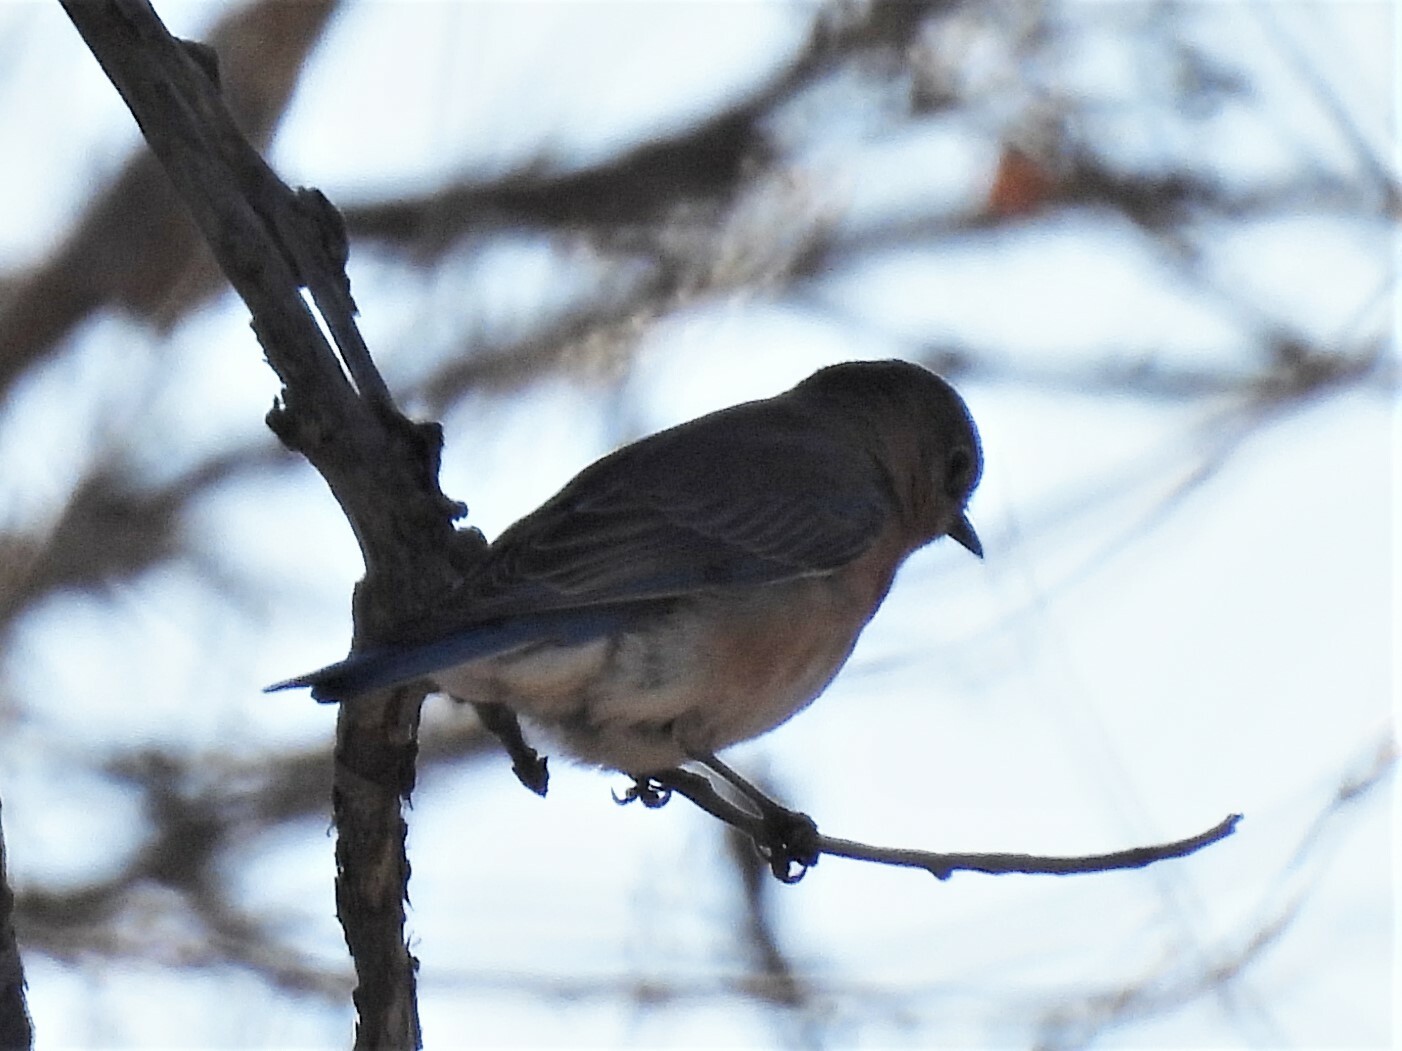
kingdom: Animalia
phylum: Chordata
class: Aves
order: Passeriformes
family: Turdidae
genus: Sialia
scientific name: Sialia mexicana
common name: Western bluebird
